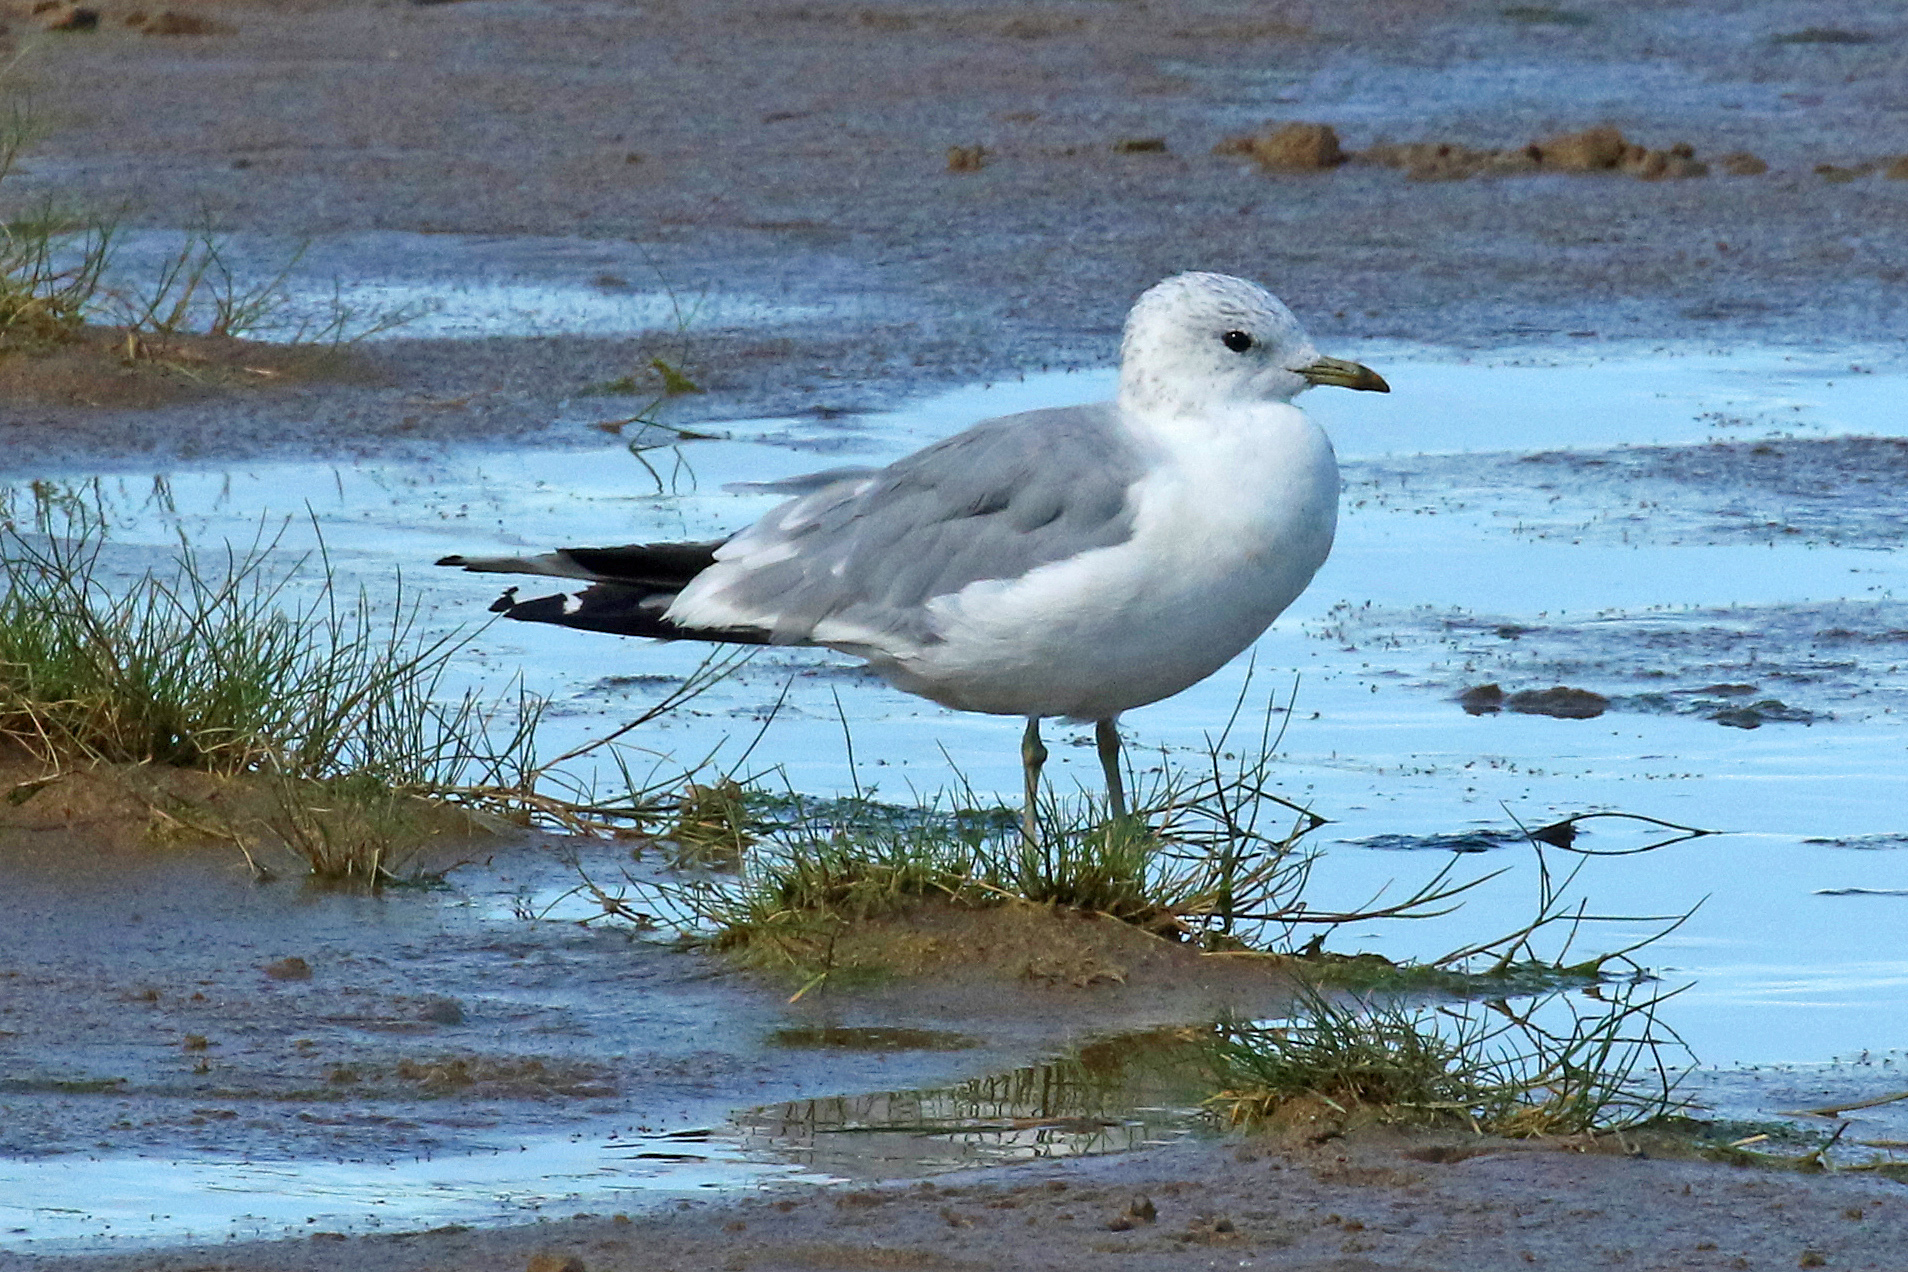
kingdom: Animalia
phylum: Chordata
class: Aves
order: Charadriiformes
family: Laridae
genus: Larus
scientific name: Larus canus
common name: Mew gull
